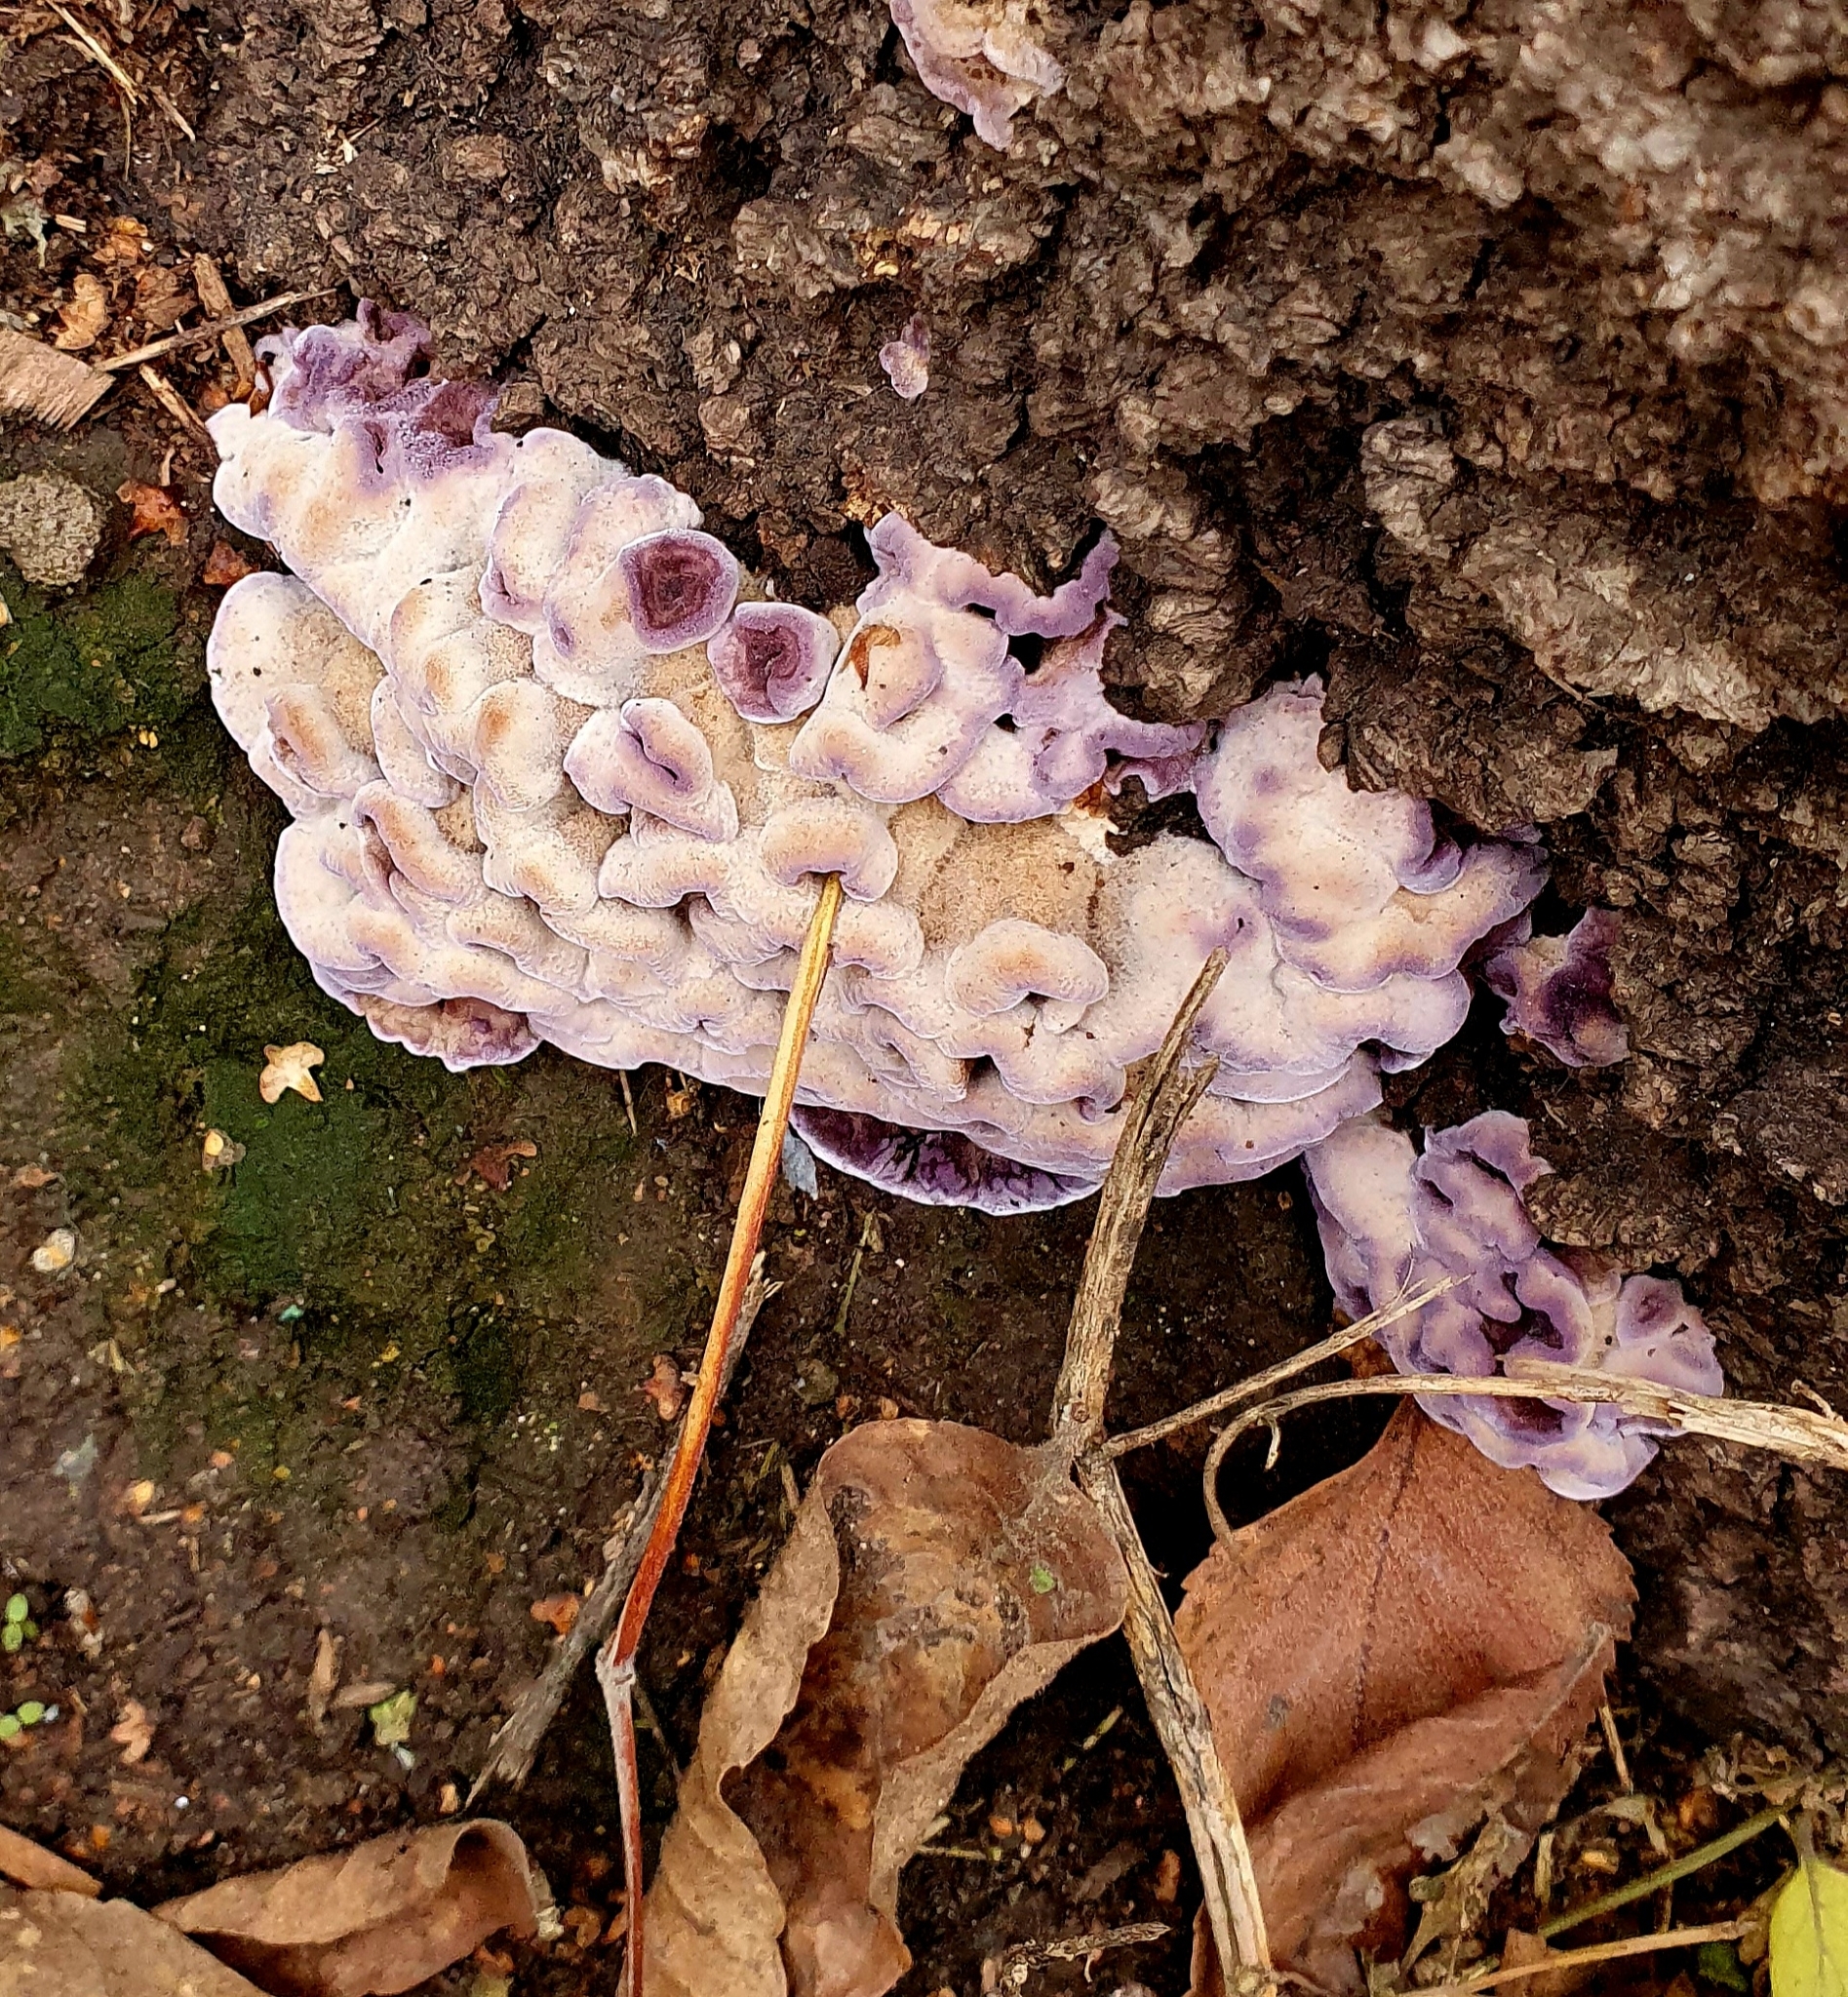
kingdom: Fungi
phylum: Basidiomycota
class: Agaricomycetes
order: Agaricales
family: Cyphellaceae
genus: Chondrostereum
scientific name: Chondrostereum purpureum
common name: Silver leaf disease
